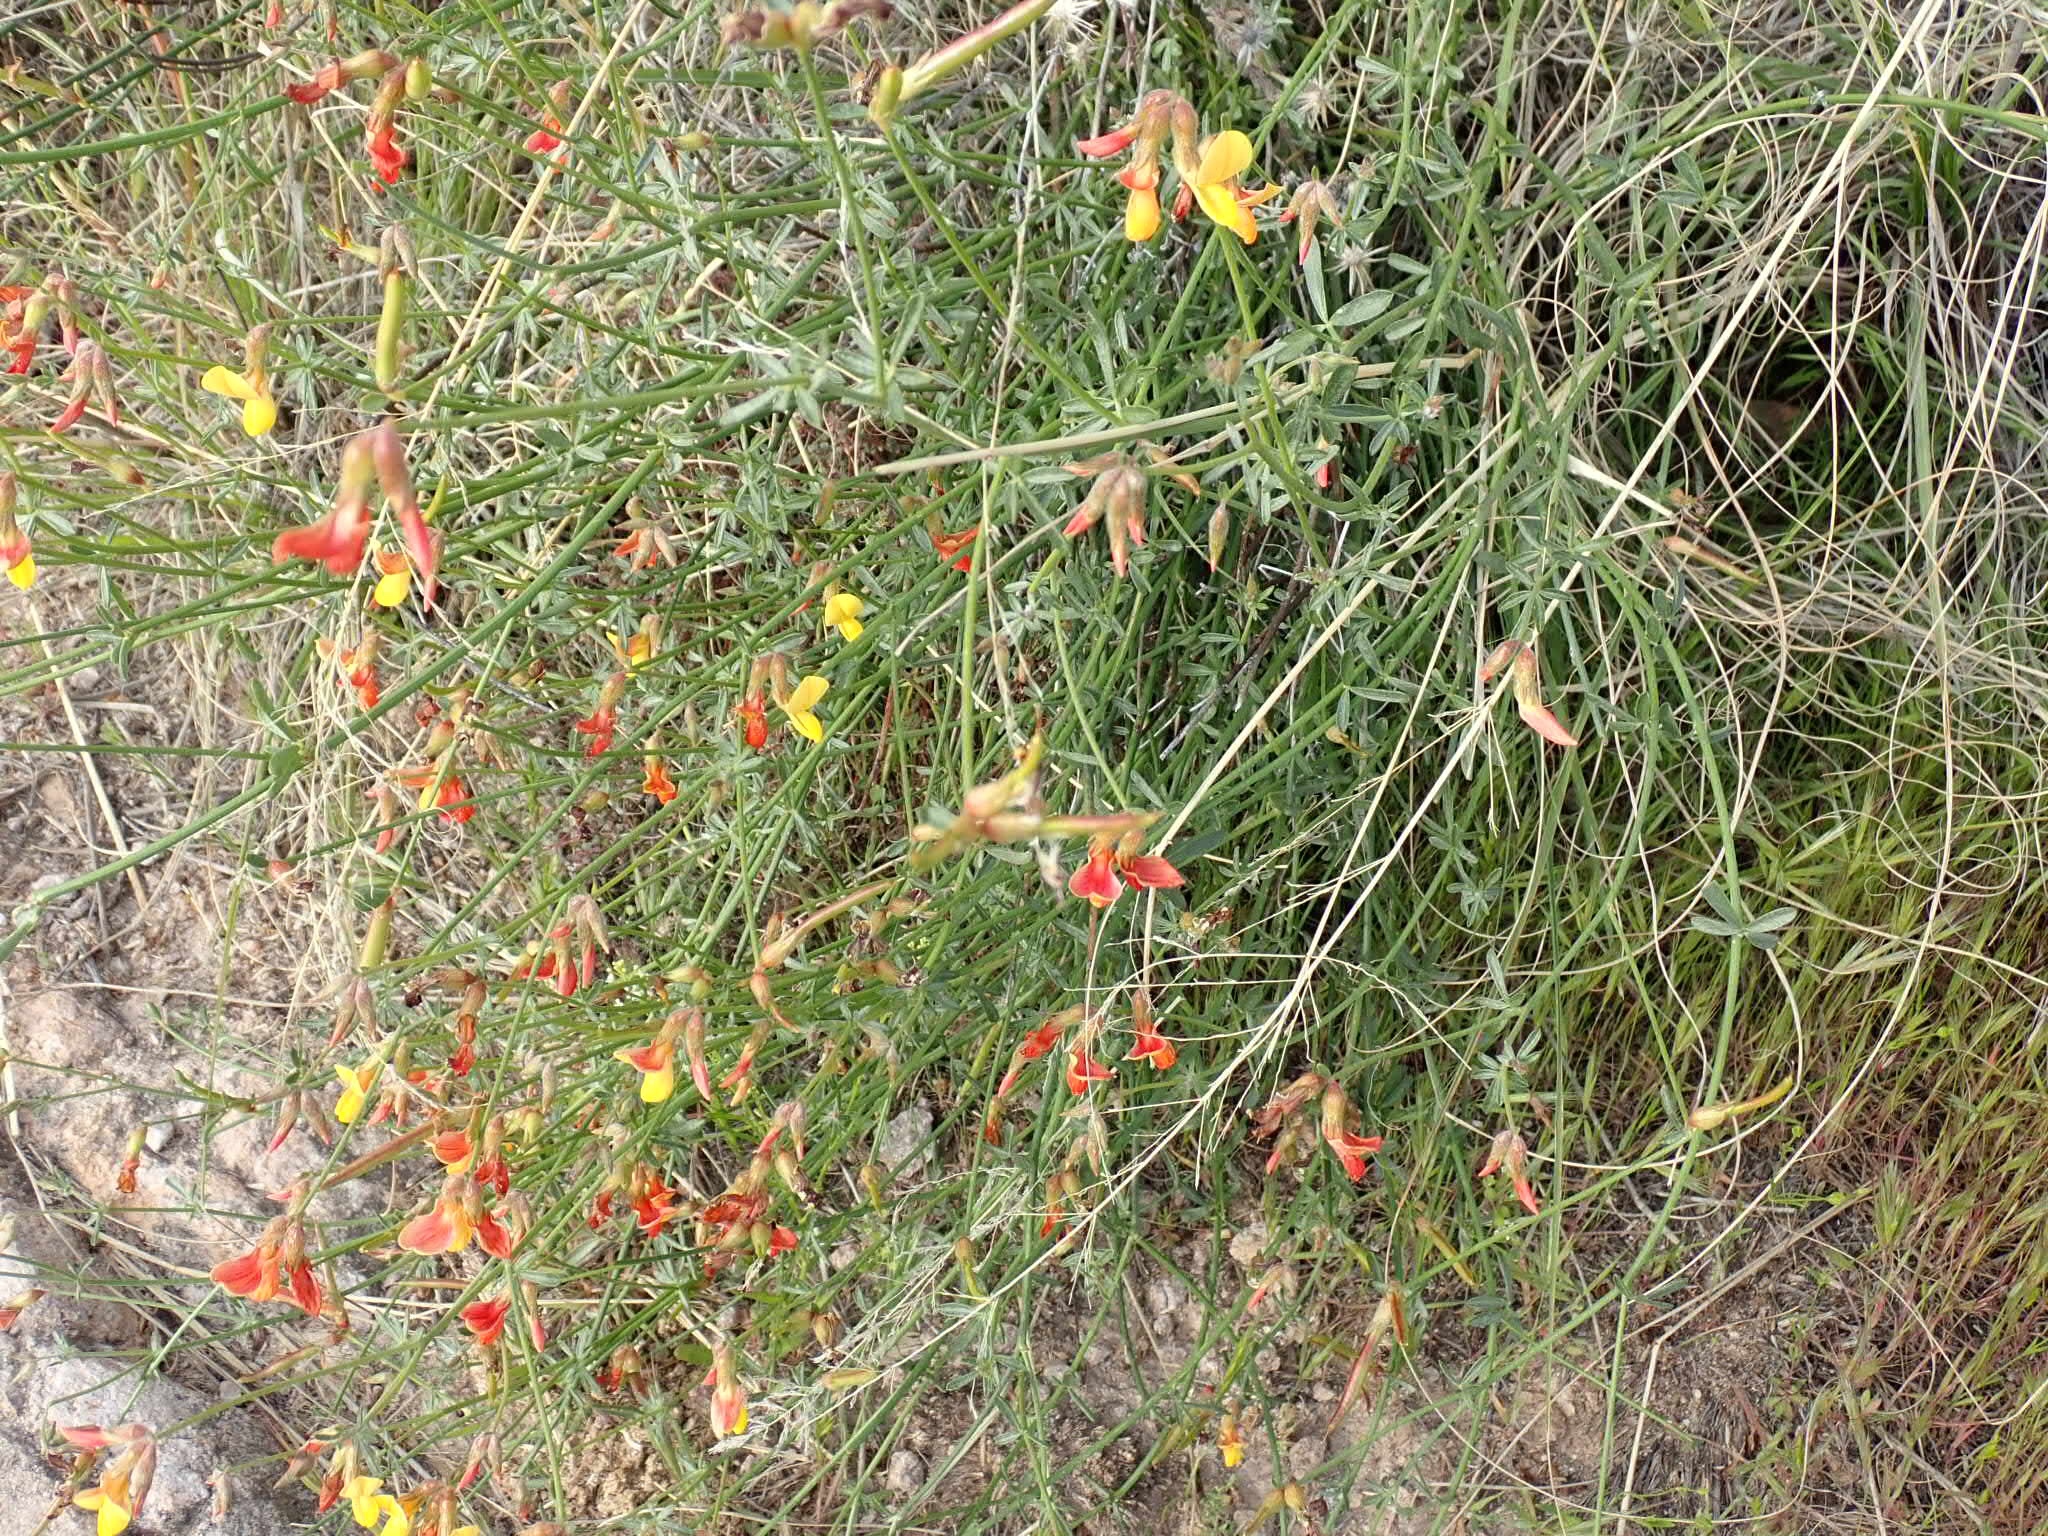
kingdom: Plantae
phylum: Tracheophyta
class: Magnoliopsida
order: Fabales
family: Fabaceae
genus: Acmispon
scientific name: Acmispon rigidus
